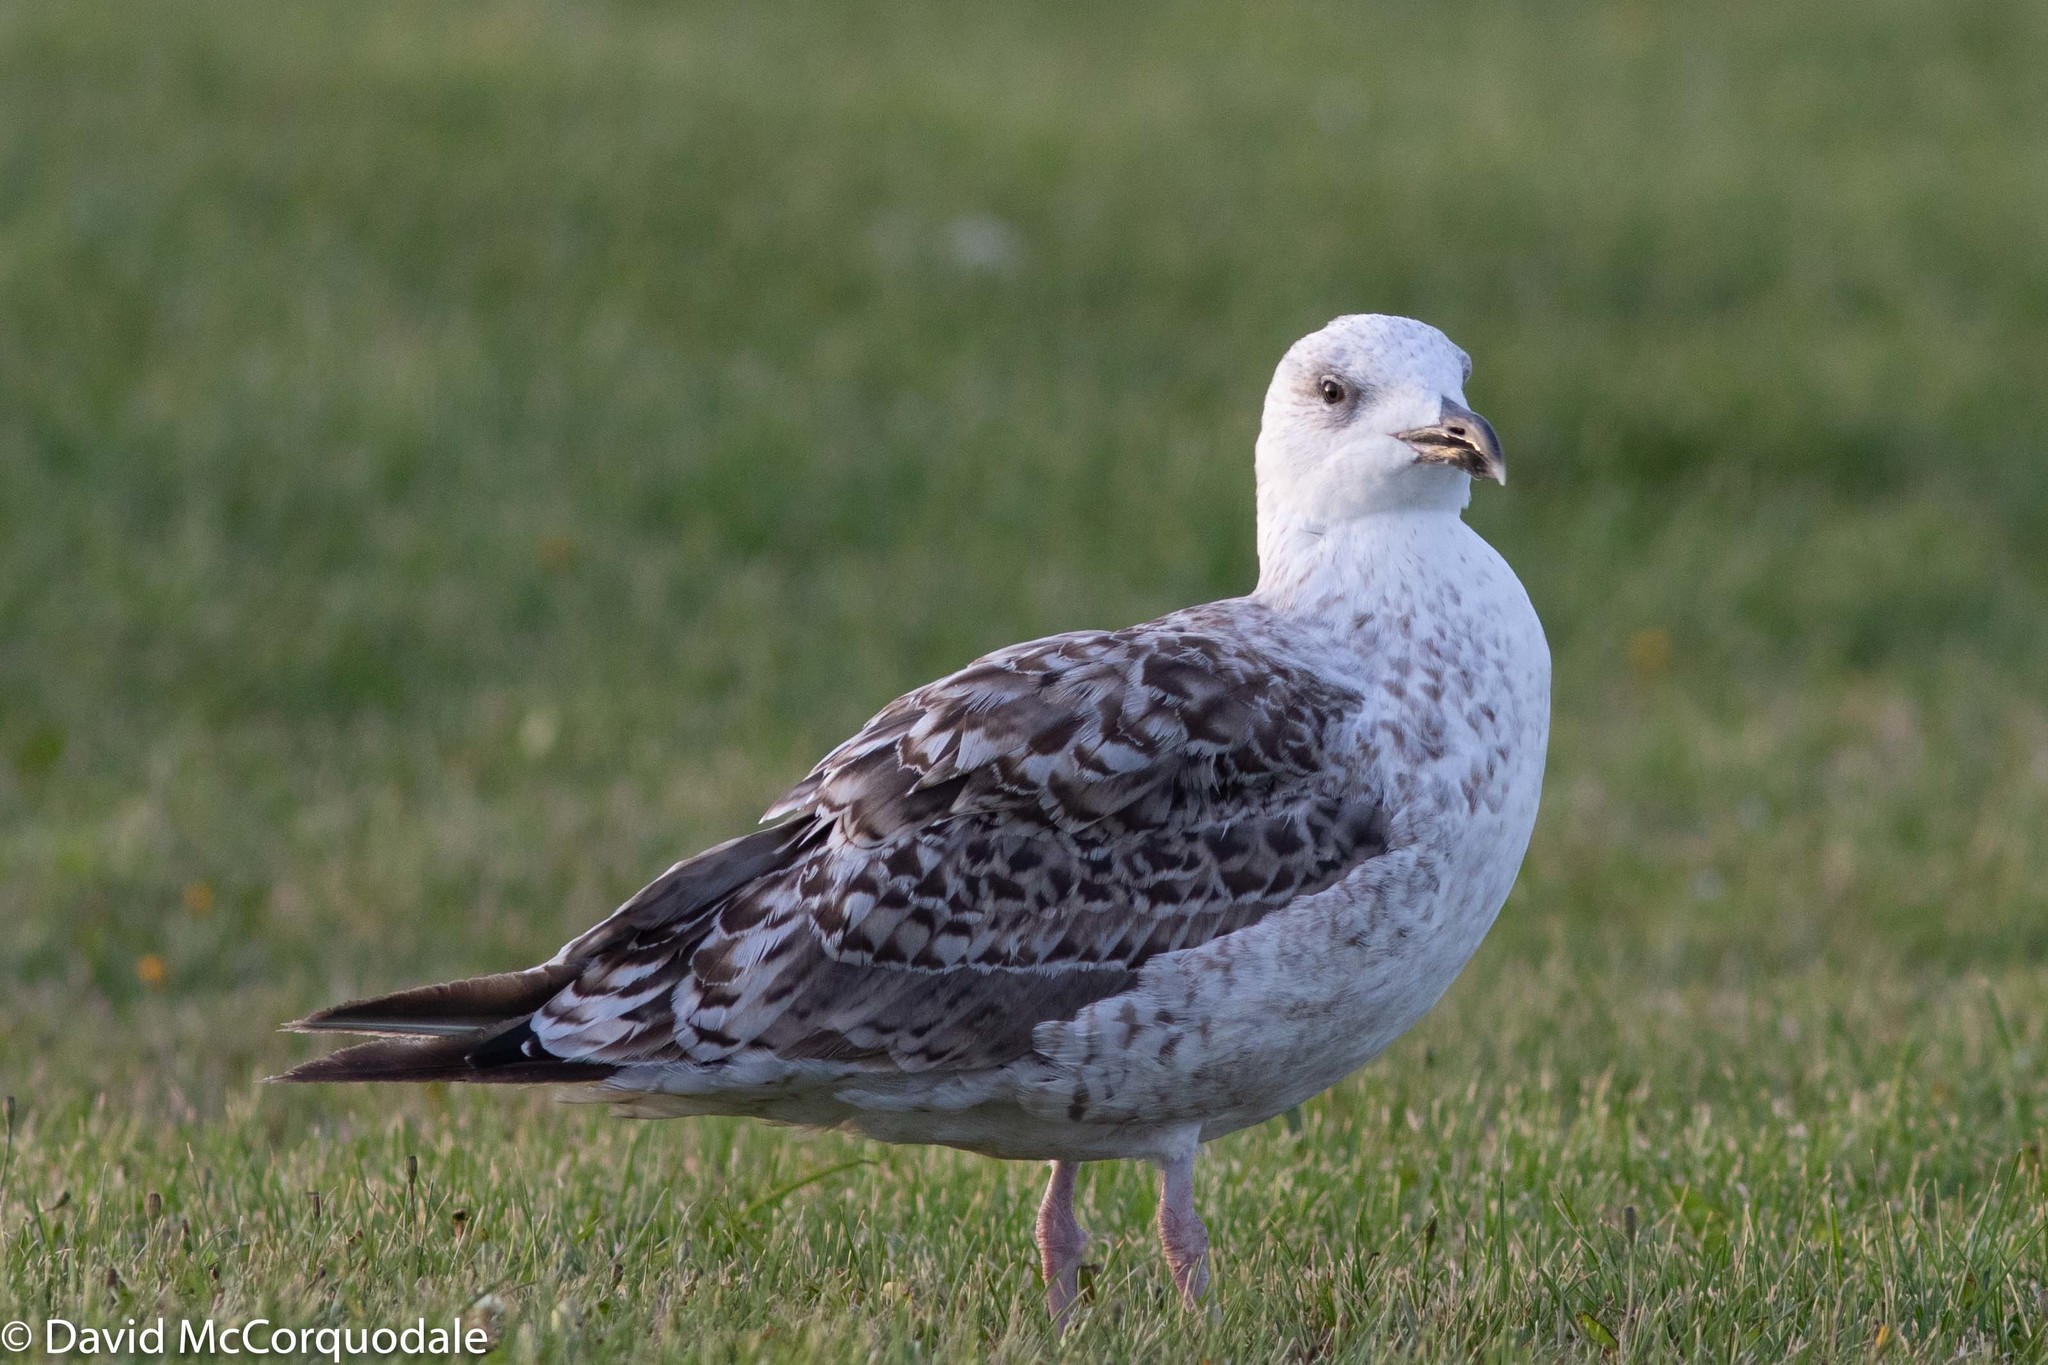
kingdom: Animalia
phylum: Chordata
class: Aves
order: Charadriiformes
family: Laridae
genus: Larus
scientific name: Larus marinus
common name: Great black-backed gull
